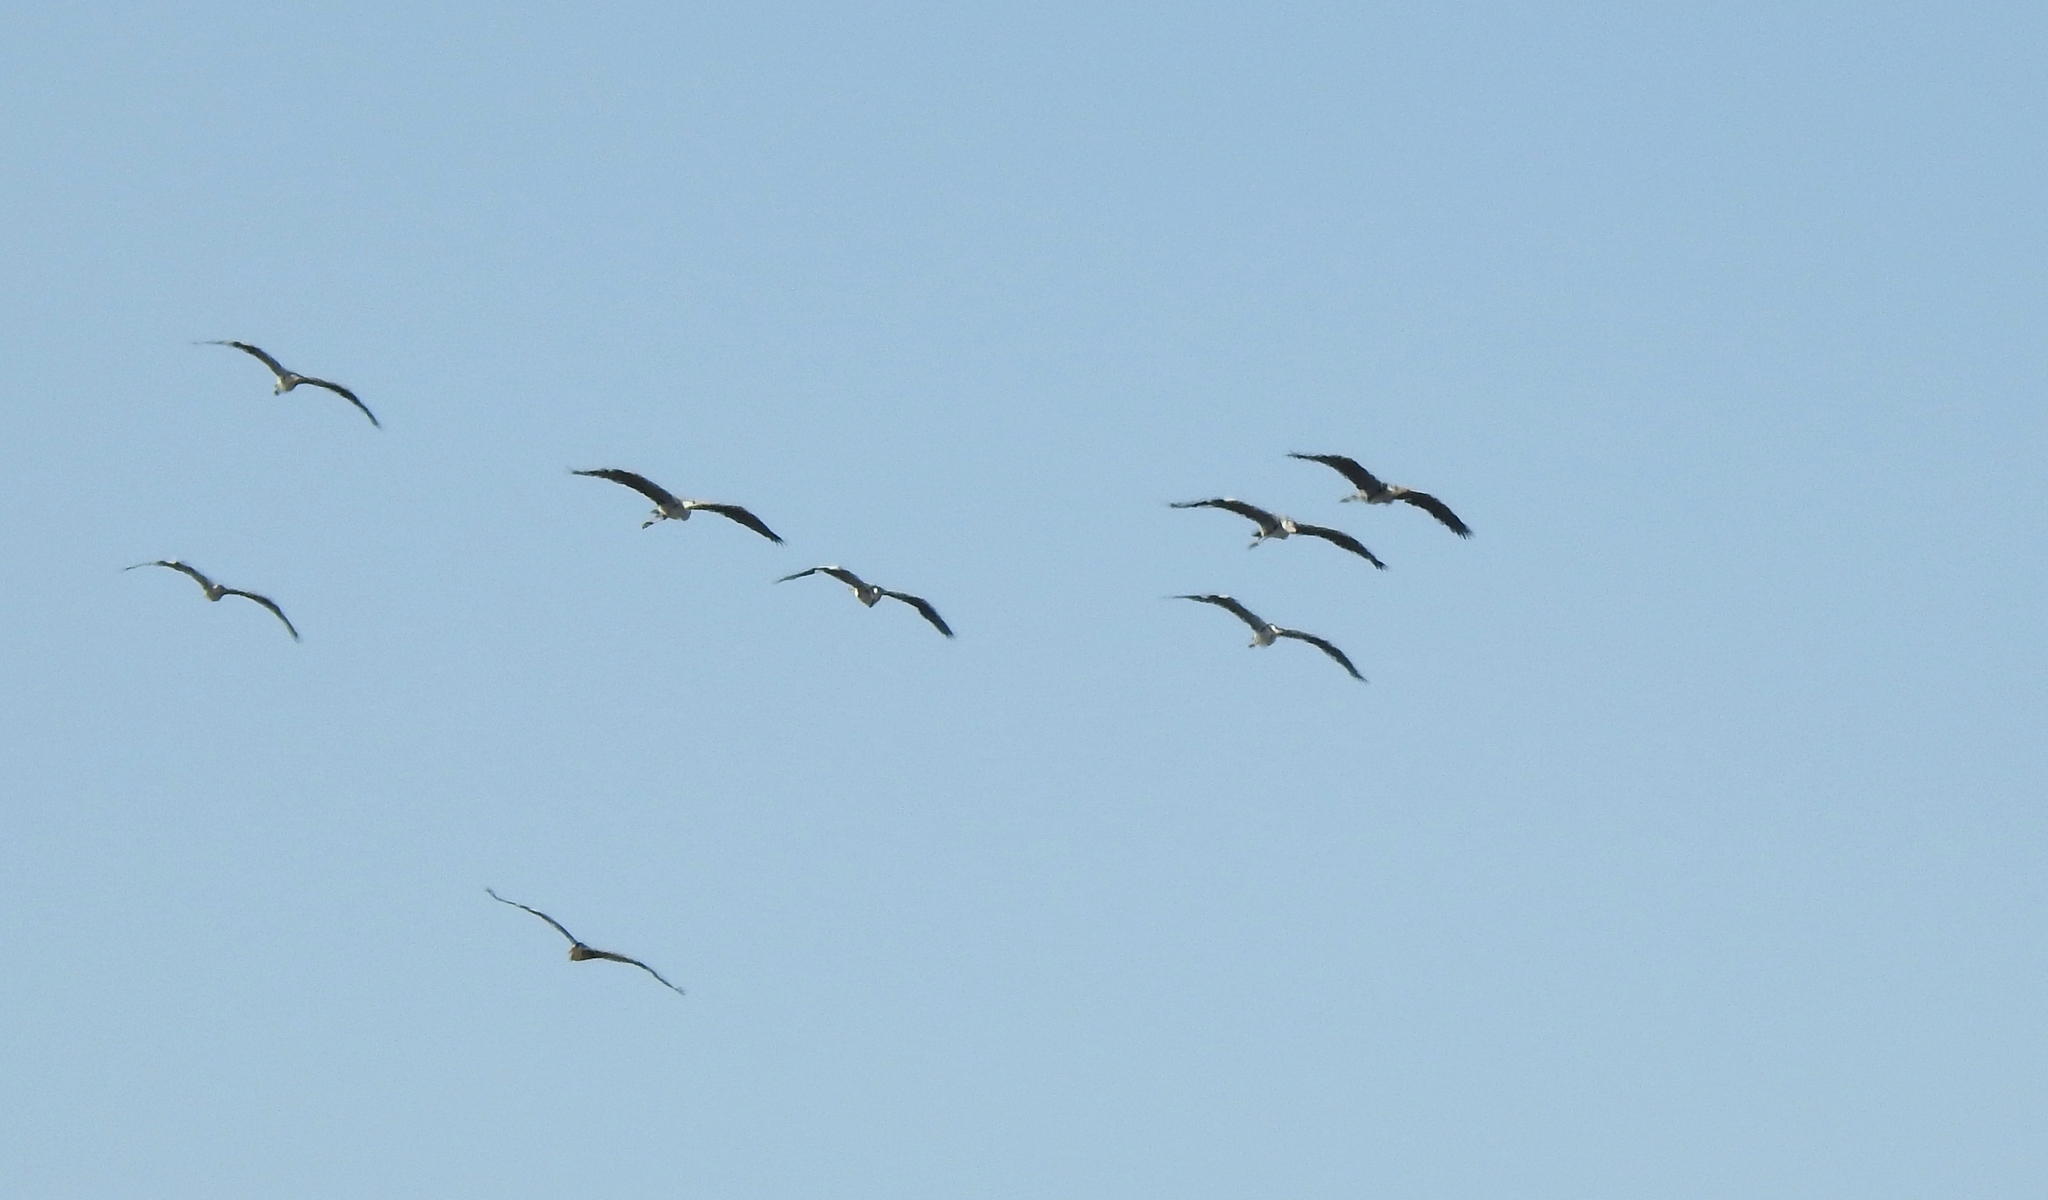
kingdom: Animalia
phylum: Chordata
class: Aves
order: Pelecaniformes
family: Ardeidae
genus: Ardea
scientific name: Ardea cinerea
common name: Grey heron
